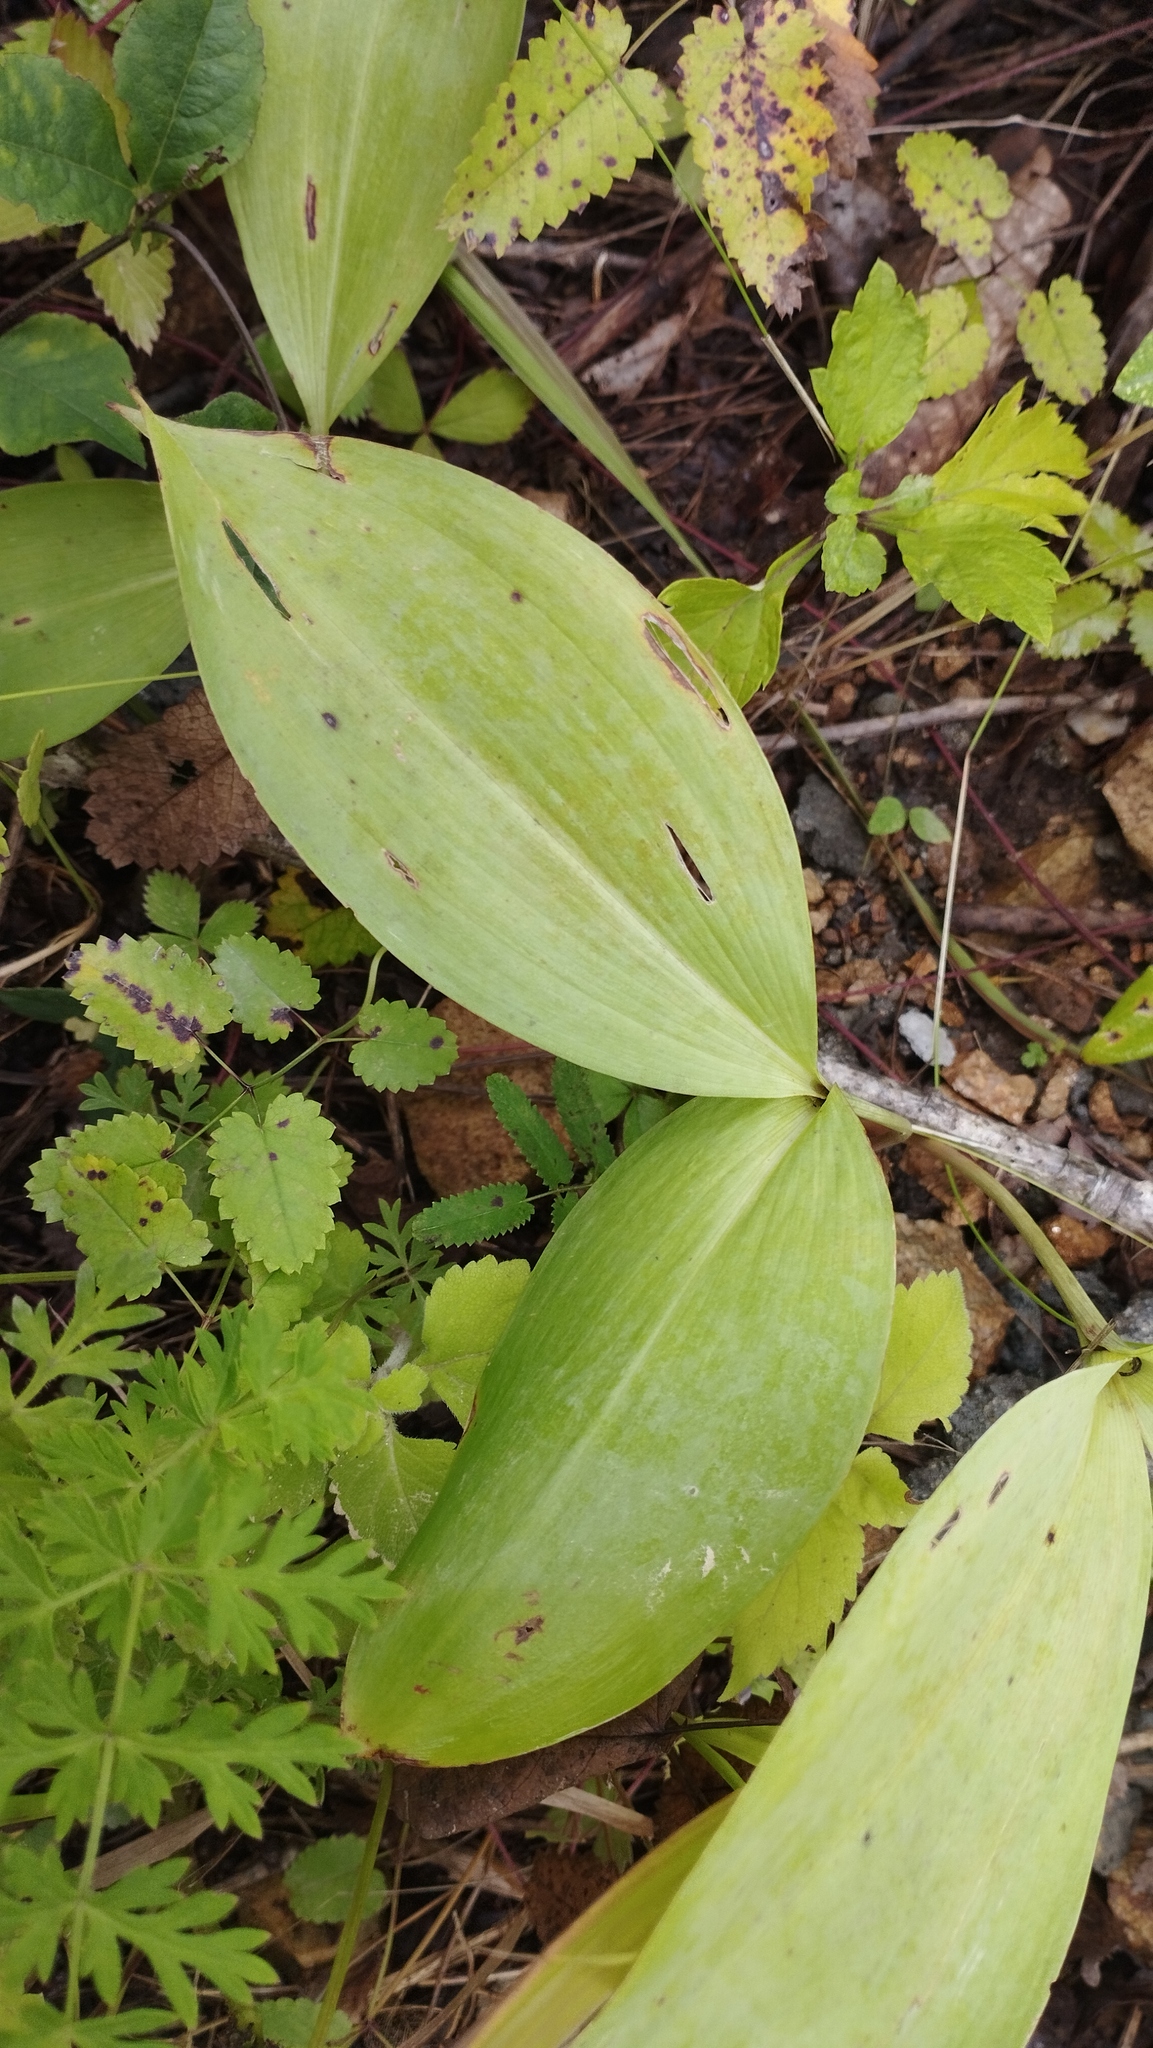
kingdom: Plantae
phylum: Tracheophyta
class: Liliopsida
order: Asparagales
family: Asparagaceae
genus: Convallaria
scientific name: Convallaria keiskei
